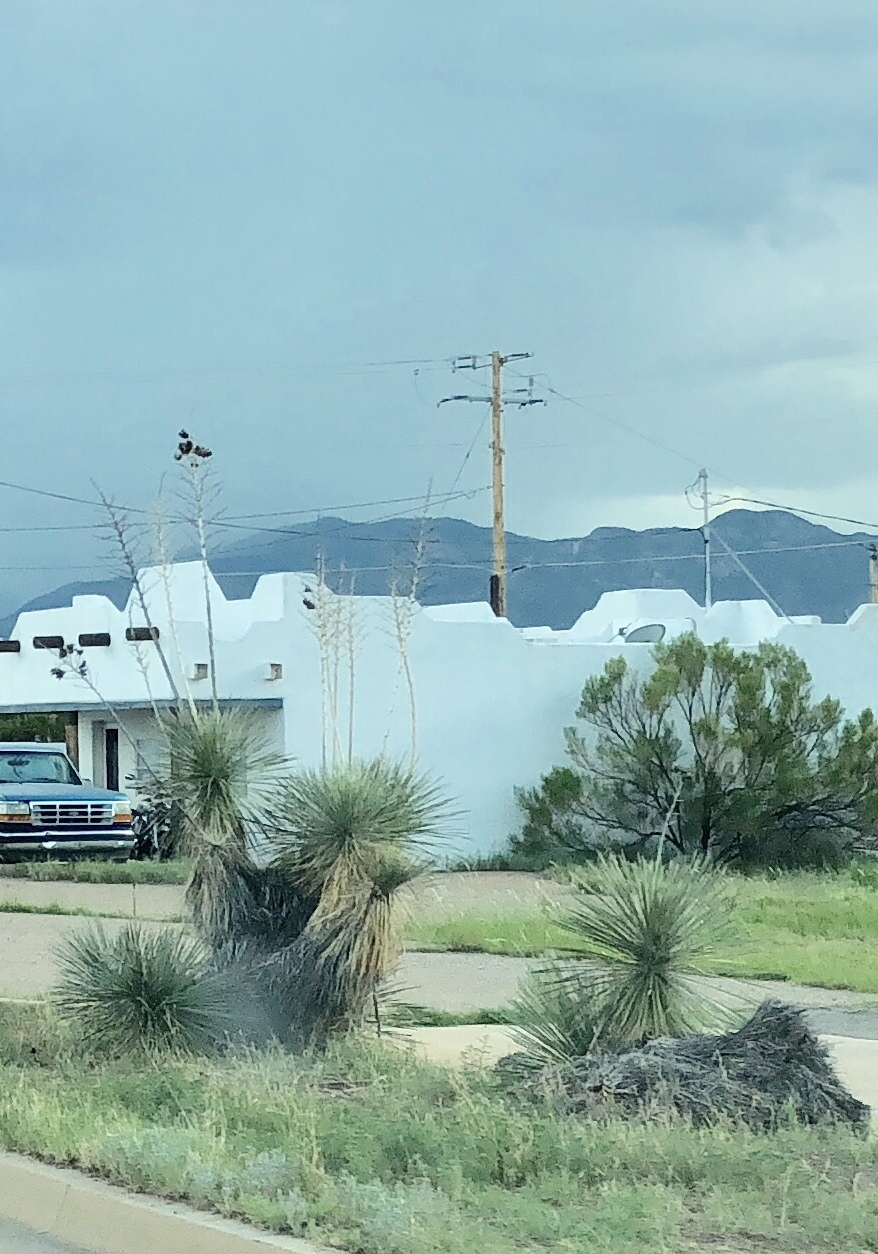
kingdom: Plantae
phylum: Tracheophyta
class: Liliopsida
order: Asparagales
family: Asparagaceae
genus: Yucca
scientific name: Yucca elata
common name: Palmella
